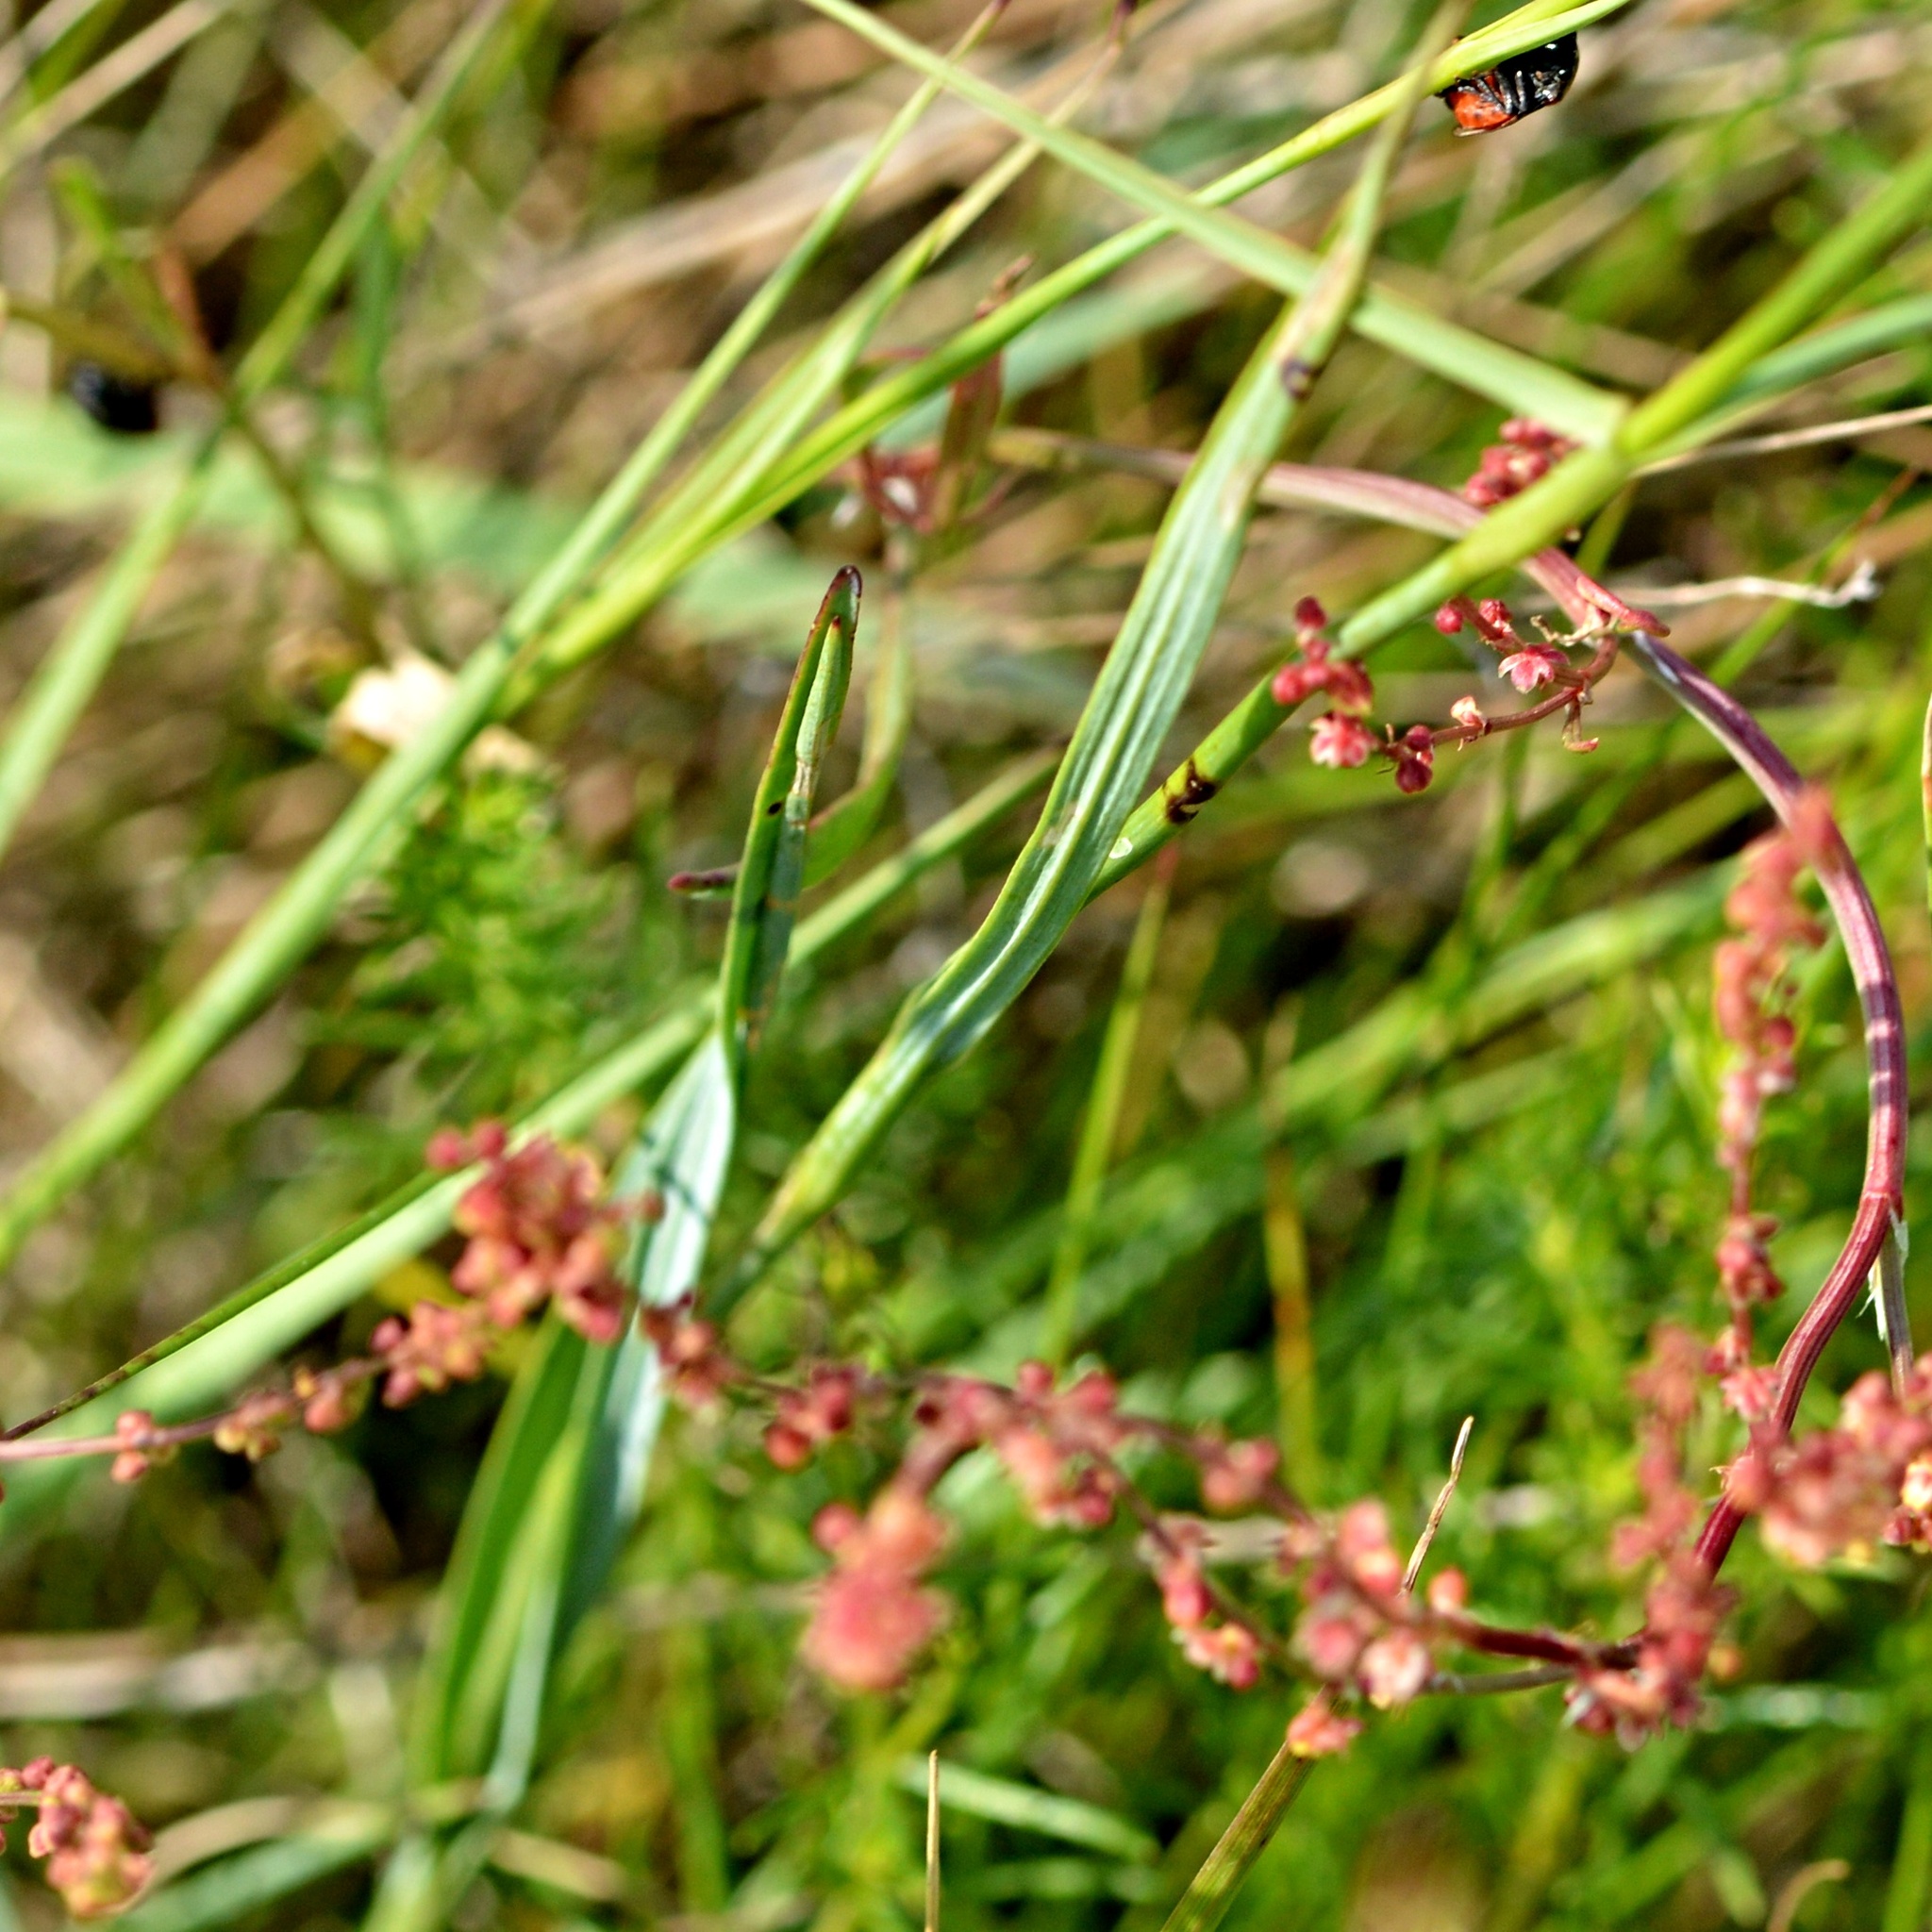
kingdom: Plantae
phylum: Tracheophyta
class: Magnoliopsida
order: Caryophyllales
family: Caryophyllaceae
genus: Dianthus
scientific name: Dianthus carthusianorum
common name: Carthusian pink
